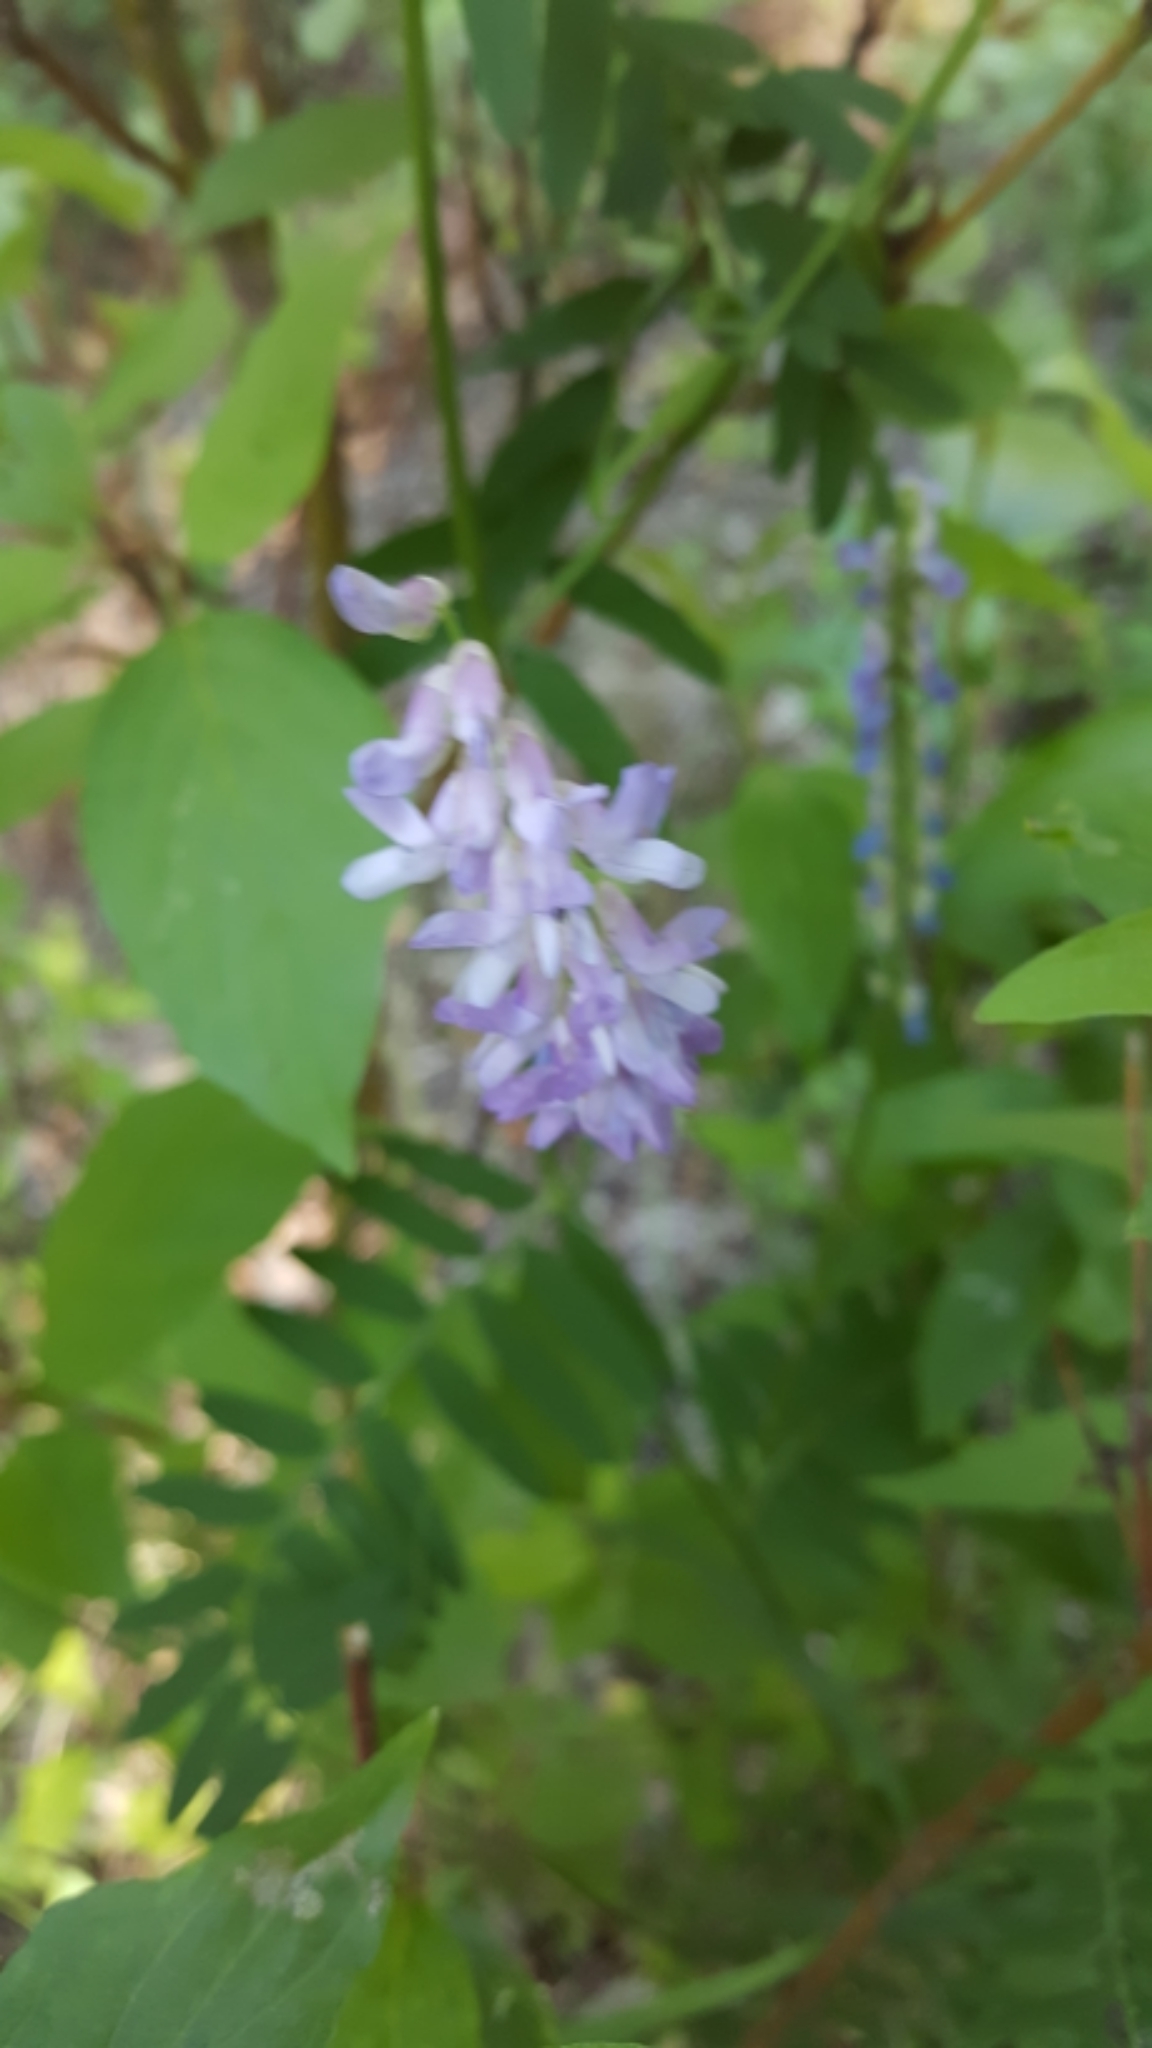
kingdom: Plantae
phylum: Tracheophyta
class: Magnoliopsida
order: Fabales
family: Fabaceae
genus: Vicia
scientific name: Vicia cracca
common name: Bird vetch
